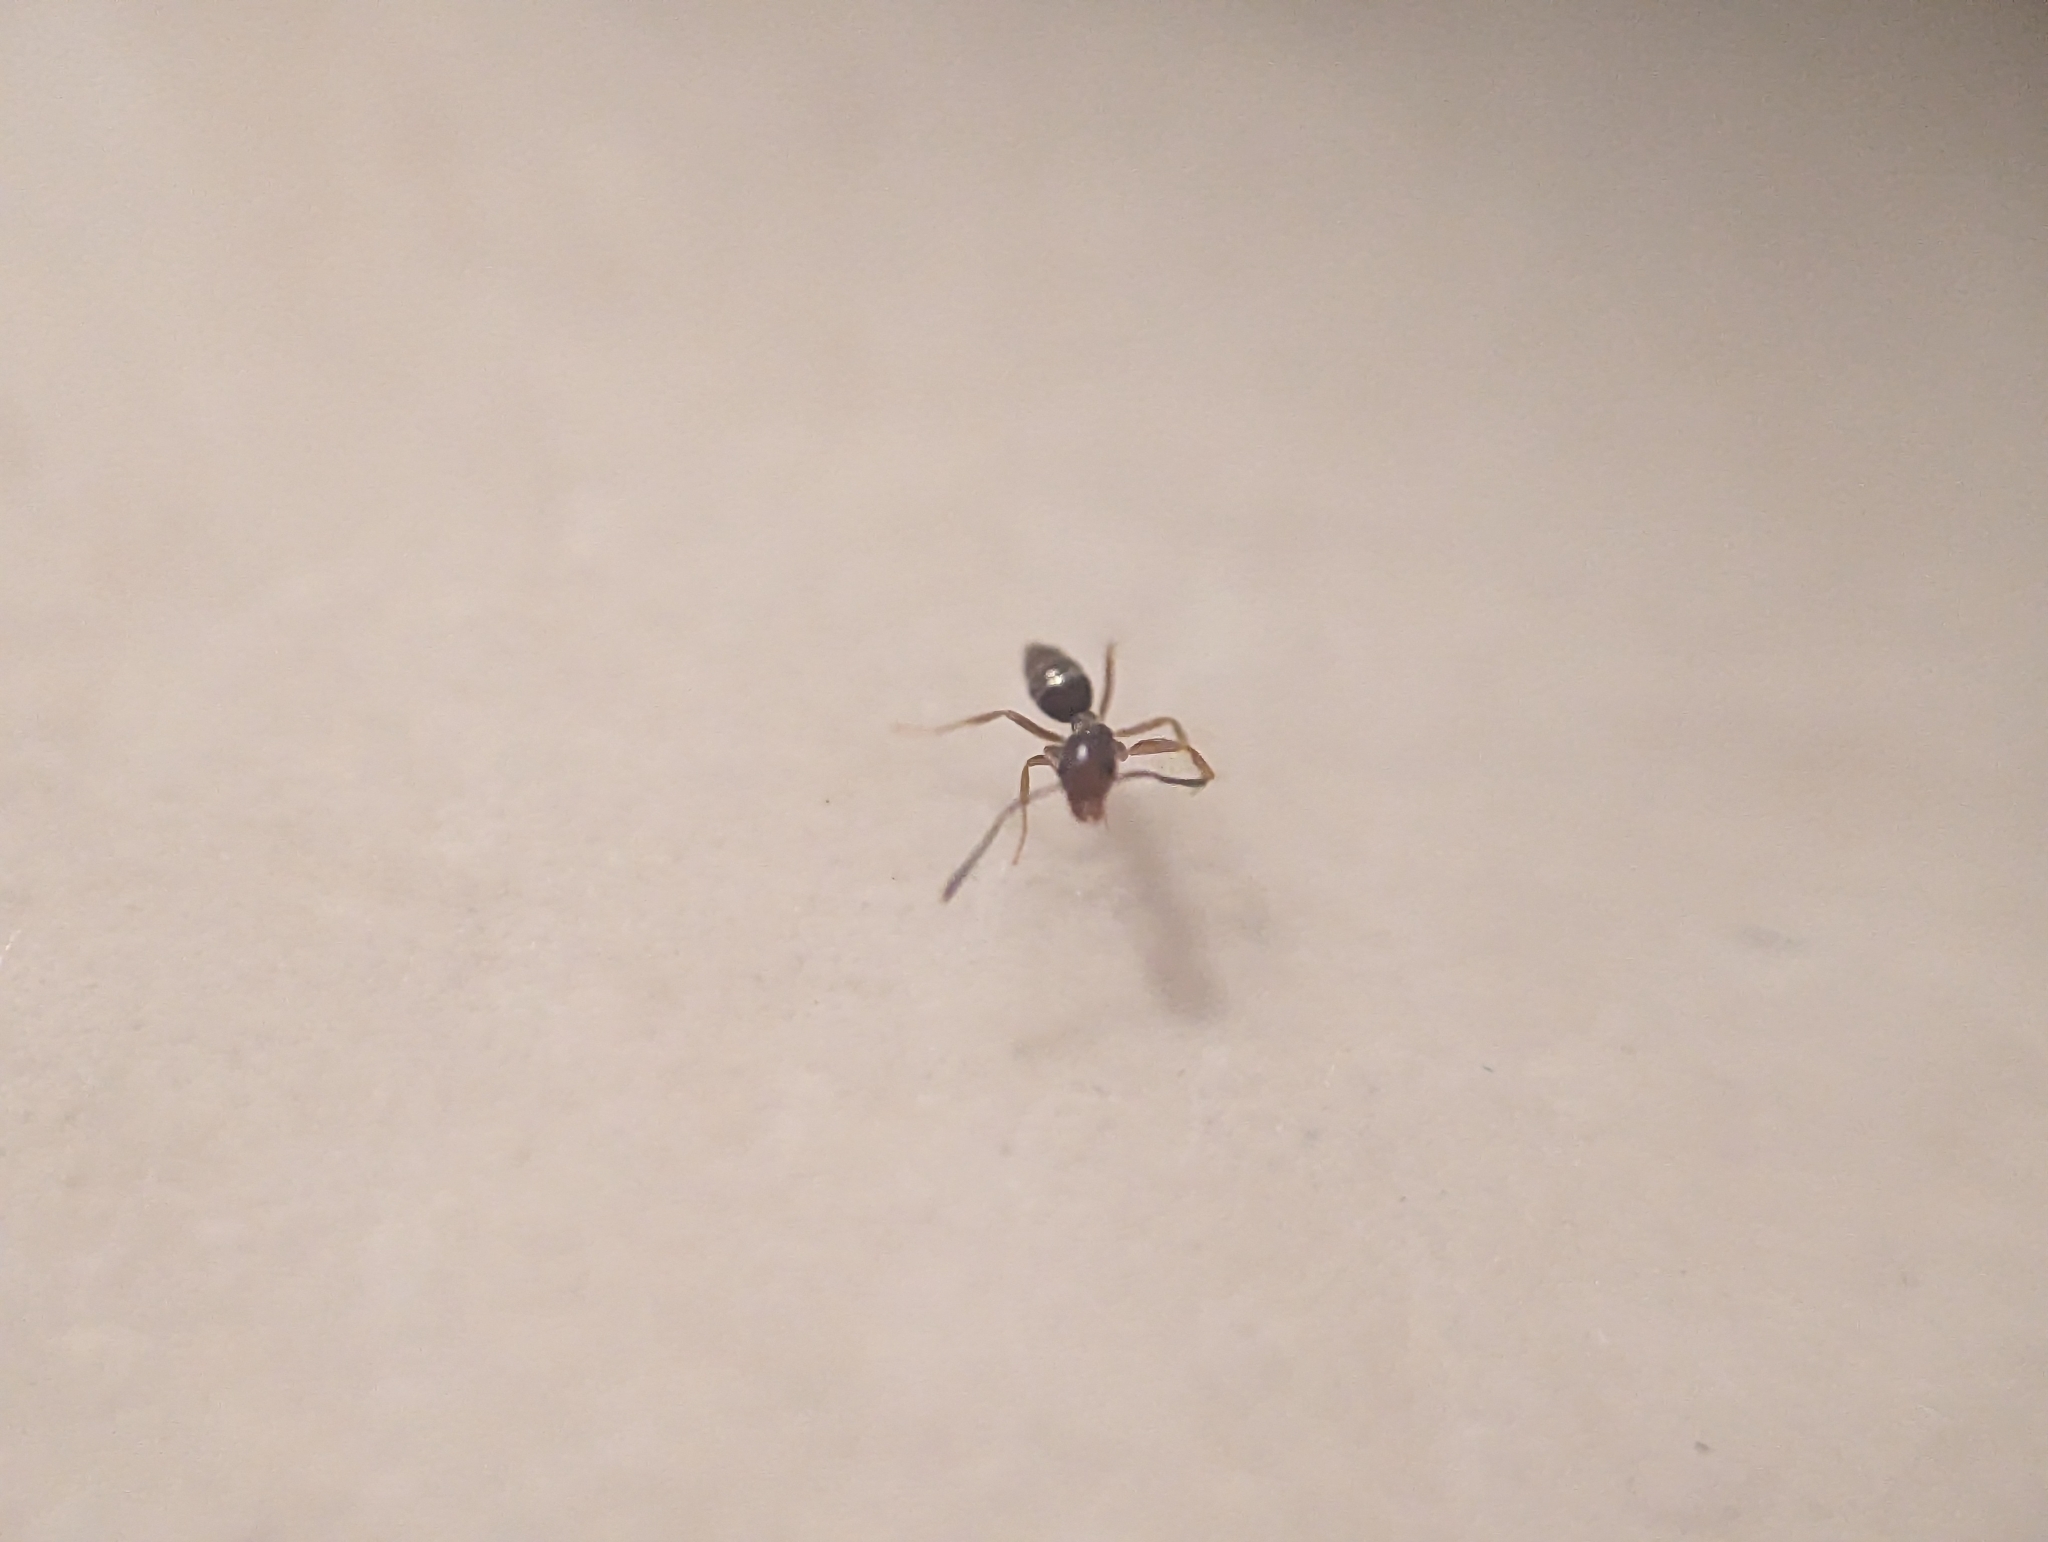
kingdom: Animalia
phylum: Arthropoda
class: Insecta
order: Hymenoptera
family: Formicidae
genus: Tapinoma
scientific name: Tapinoma sessile
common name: Odorous house ant
